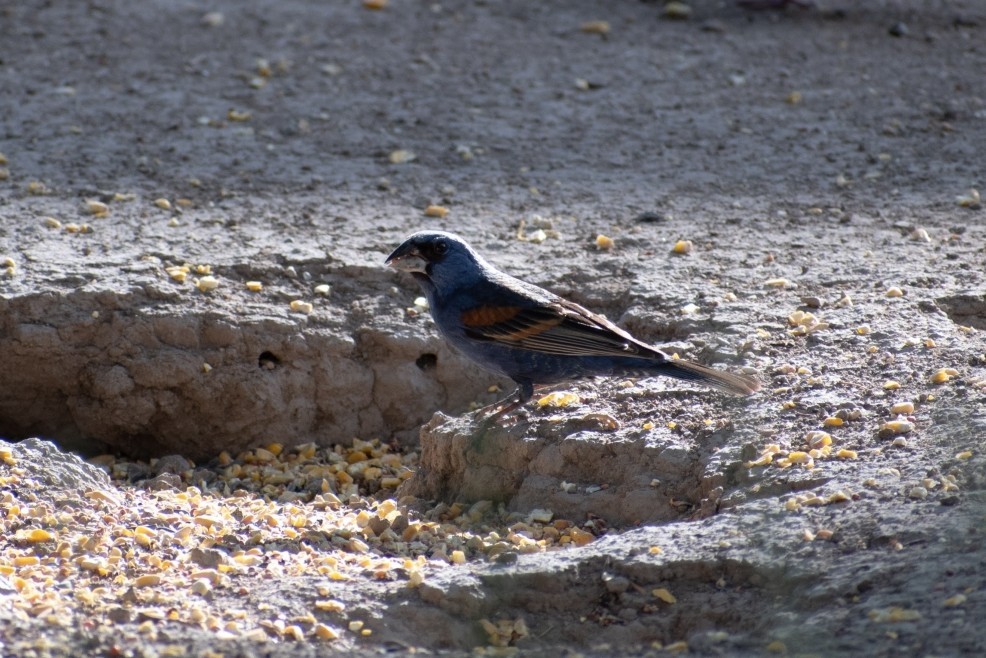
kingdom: Animalia
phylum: Chordata
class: Aves
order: Passeriformes
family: Cardinalidae
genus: Passerina
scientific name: Passerina caerulea
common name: Blue grosbeak
